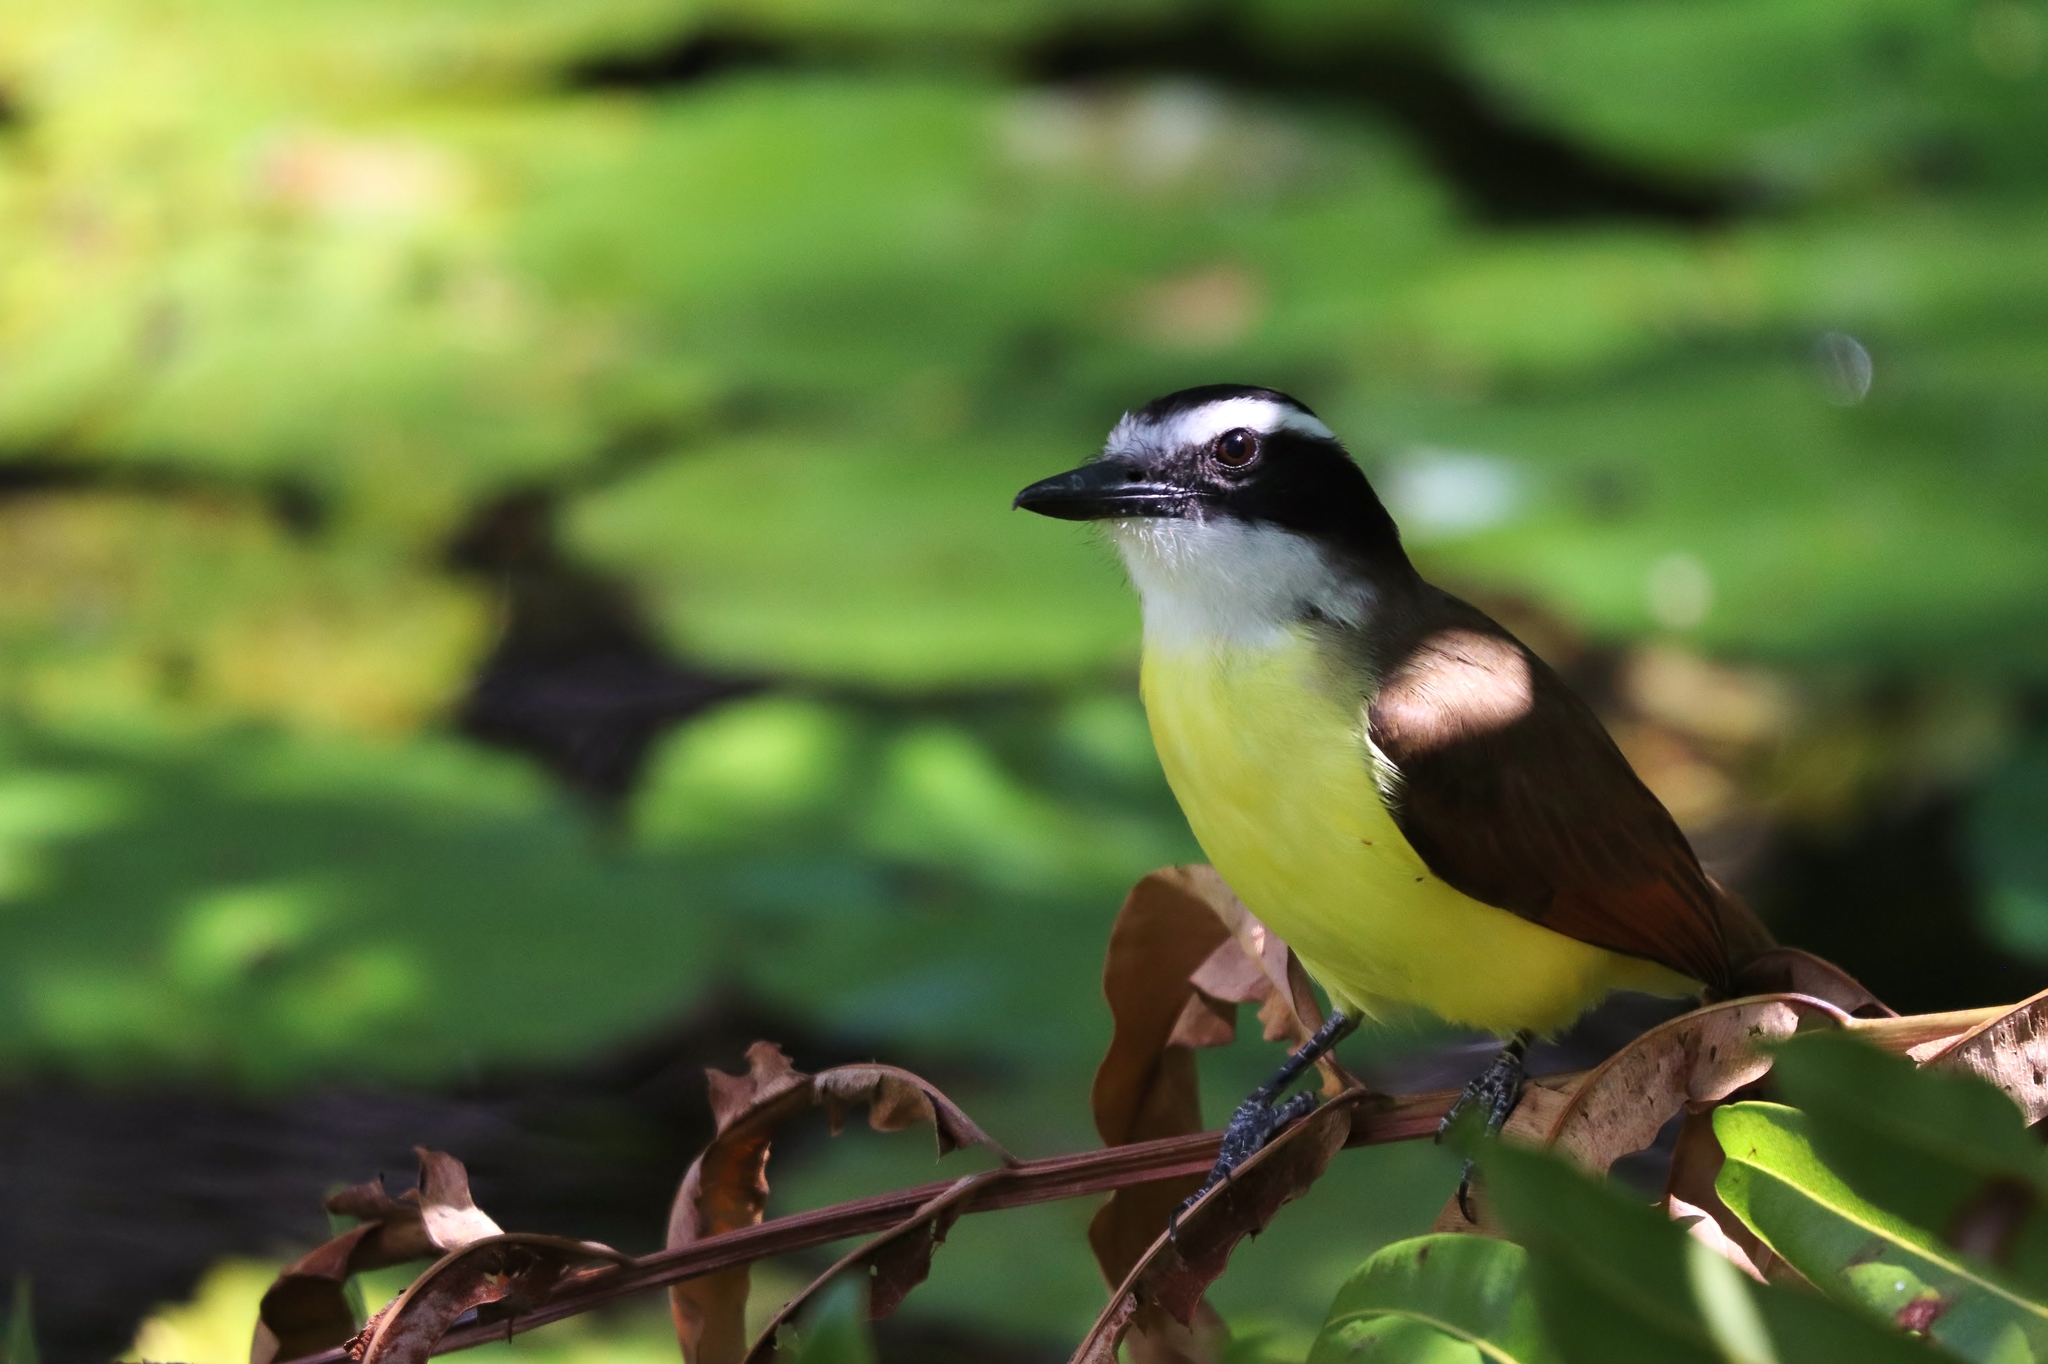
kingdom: Animalia
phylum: Chordata
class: Aves
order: Passeriformes
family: Tyrannidae
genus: Pitangus
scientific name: Pitangus sulphuratus
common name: Great kiskadee
